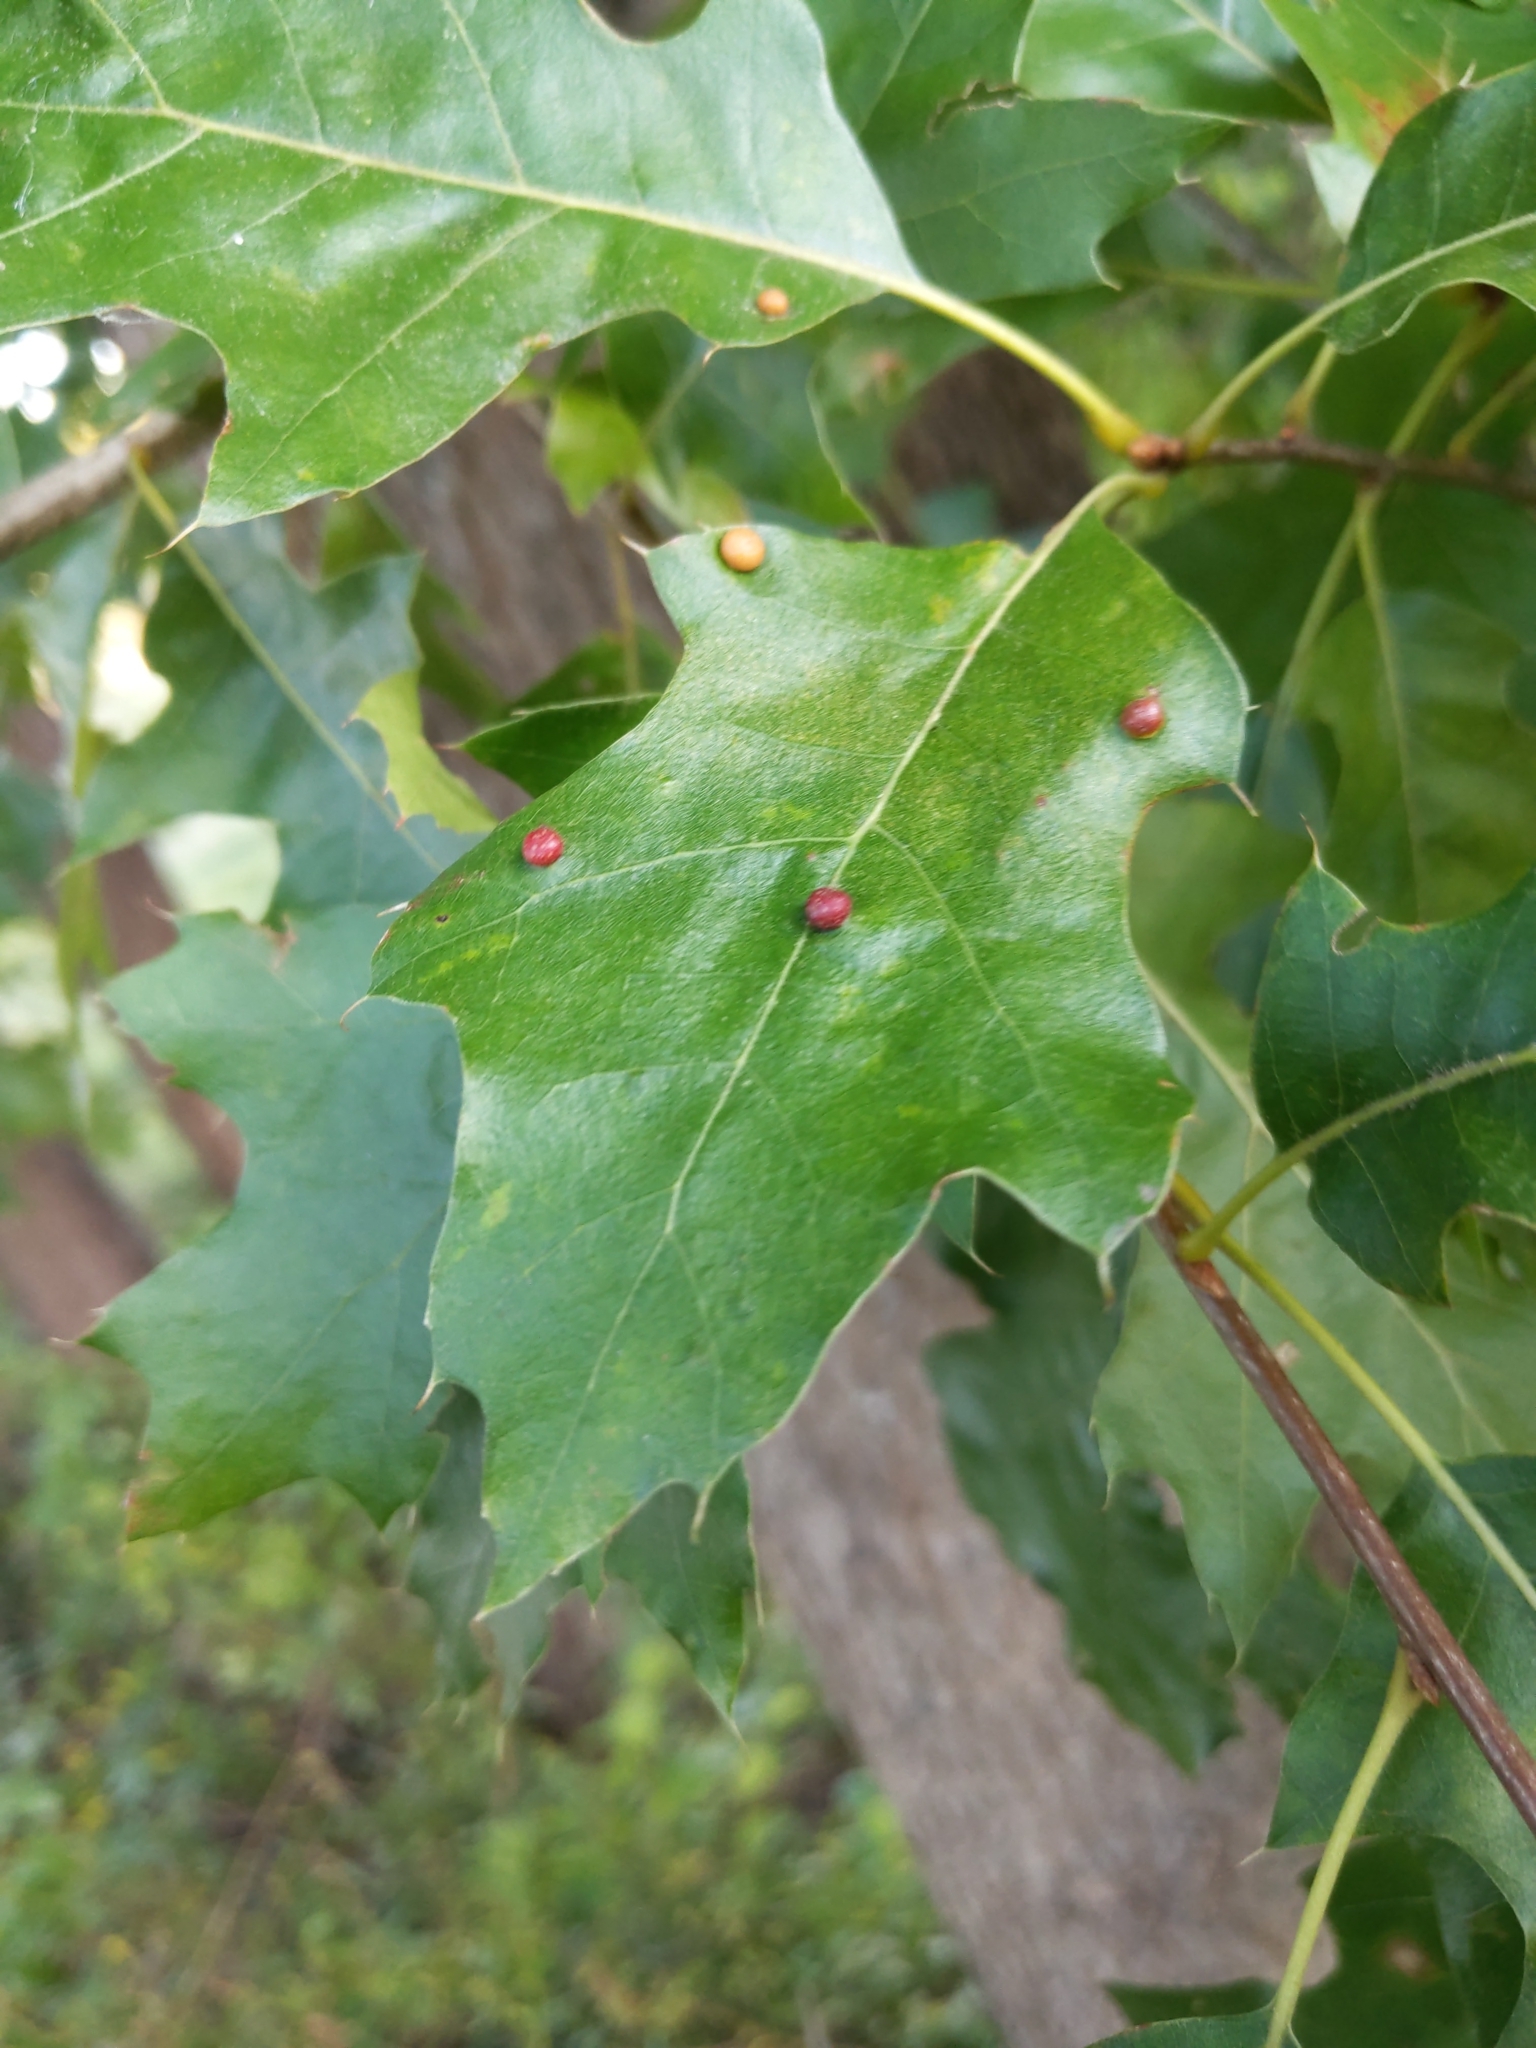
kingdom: Animalia
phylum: Arthropoda
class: Insecta
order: Diptera
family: Cecidomyiidae
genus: Polystepha
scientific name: Polystepha pilulae
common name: Oak leaf gall midge
